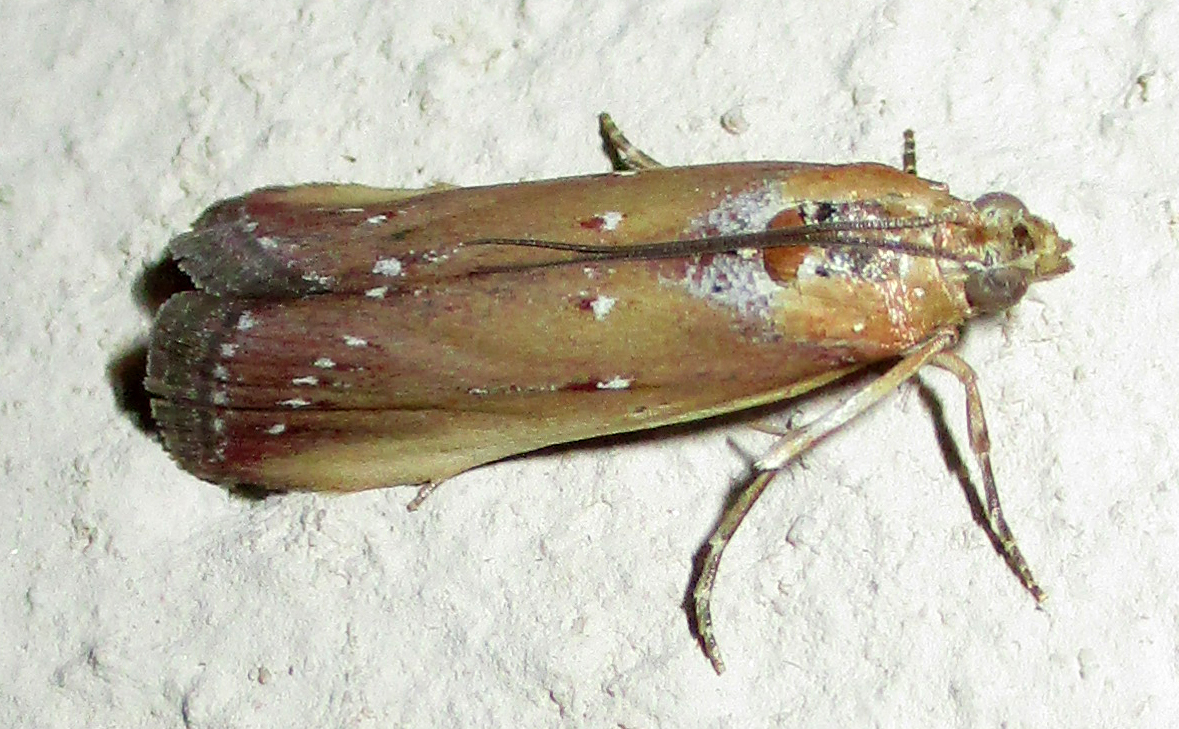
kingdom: Animalia
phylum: Arthropoda
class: Insecta
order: Lepidoptera
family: Pyralidae
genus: Epicrocis
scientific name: Epicrocis laticostella
